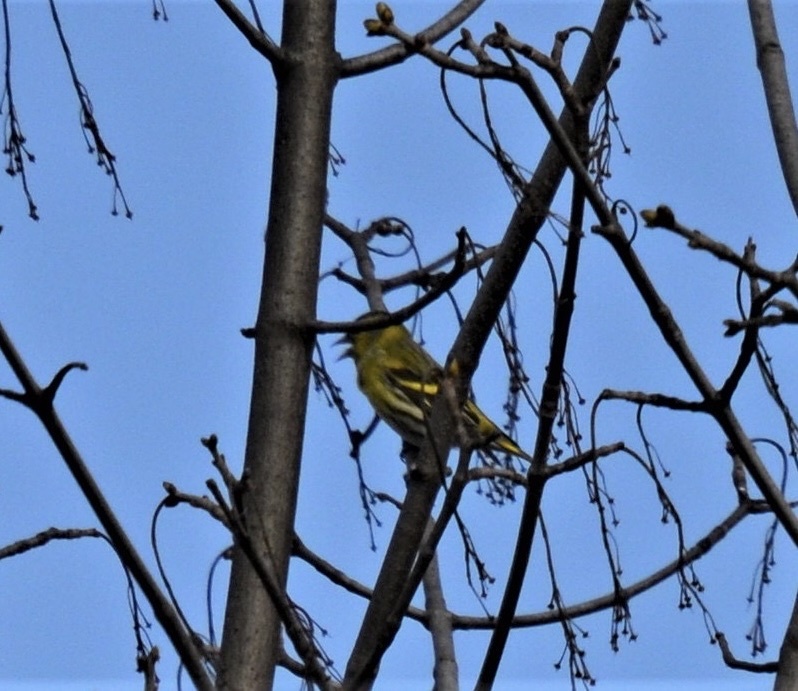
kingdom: Animalia
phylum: Chordata
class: Aves
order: Passeriformes
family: Fringillidae
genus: Spinus
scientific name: Spinus spinus
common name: Eurasian siskin
